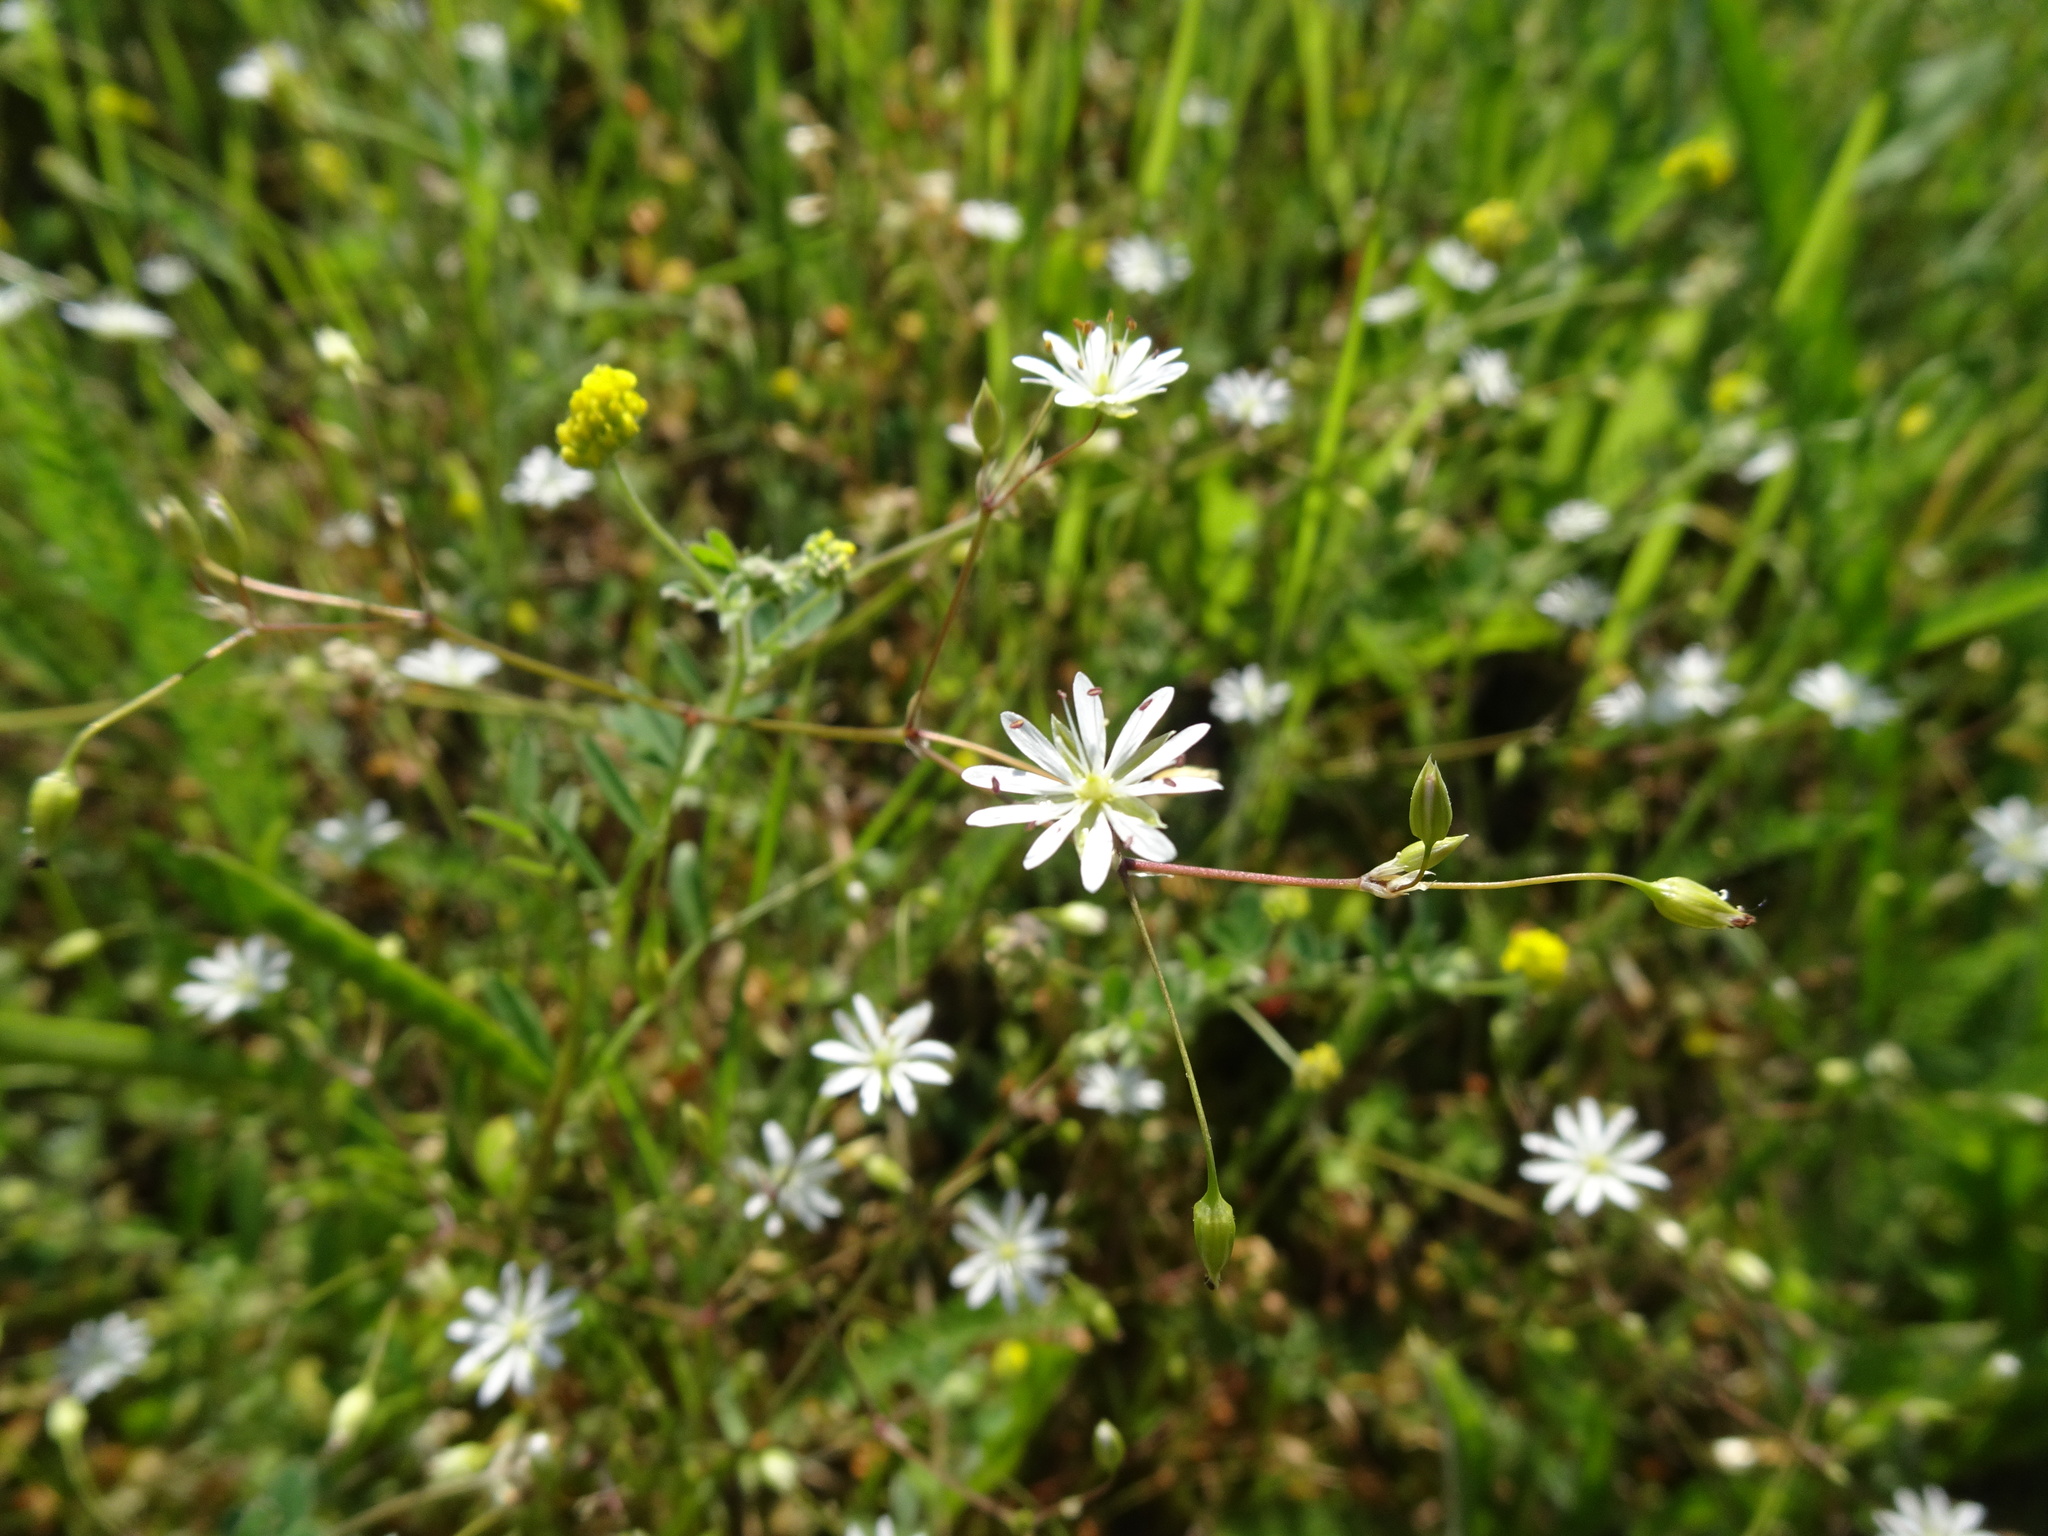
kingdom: Plantae
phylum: Tracheophyta
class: Magnoliopsida
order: Caryophyllales
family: Caryophyllaceae
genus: Stellaria
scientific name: Stellaria graminea
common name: Grass-like starwort
